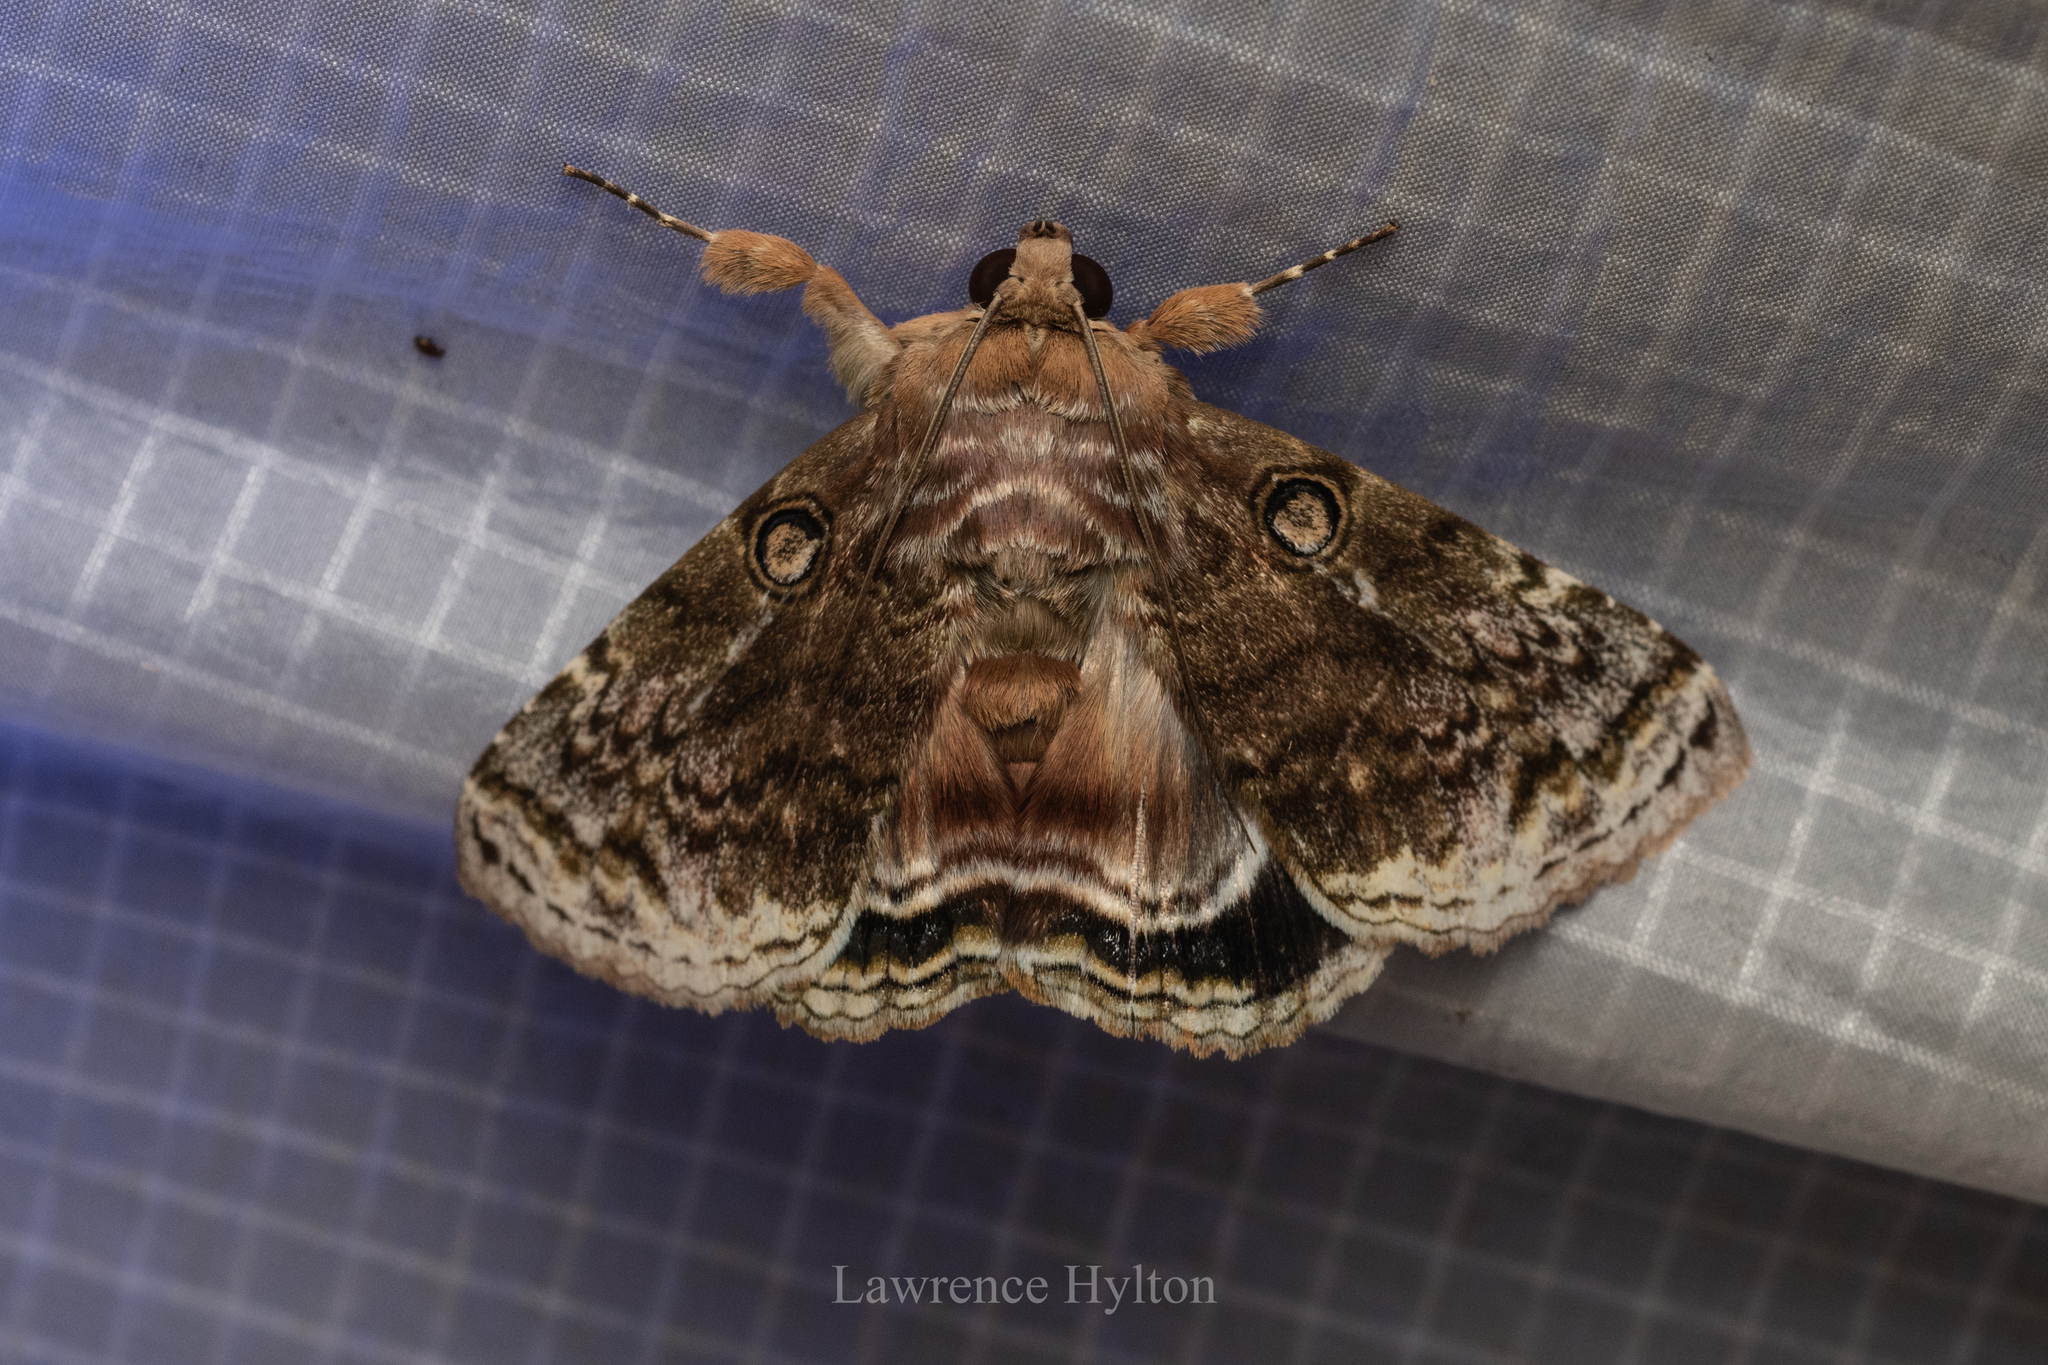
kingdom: Animalia
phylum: Arthropoda
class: Insecta
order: Lepidoptera
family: Erebidae
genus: Cyclodes
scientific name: Cyclodes omma
